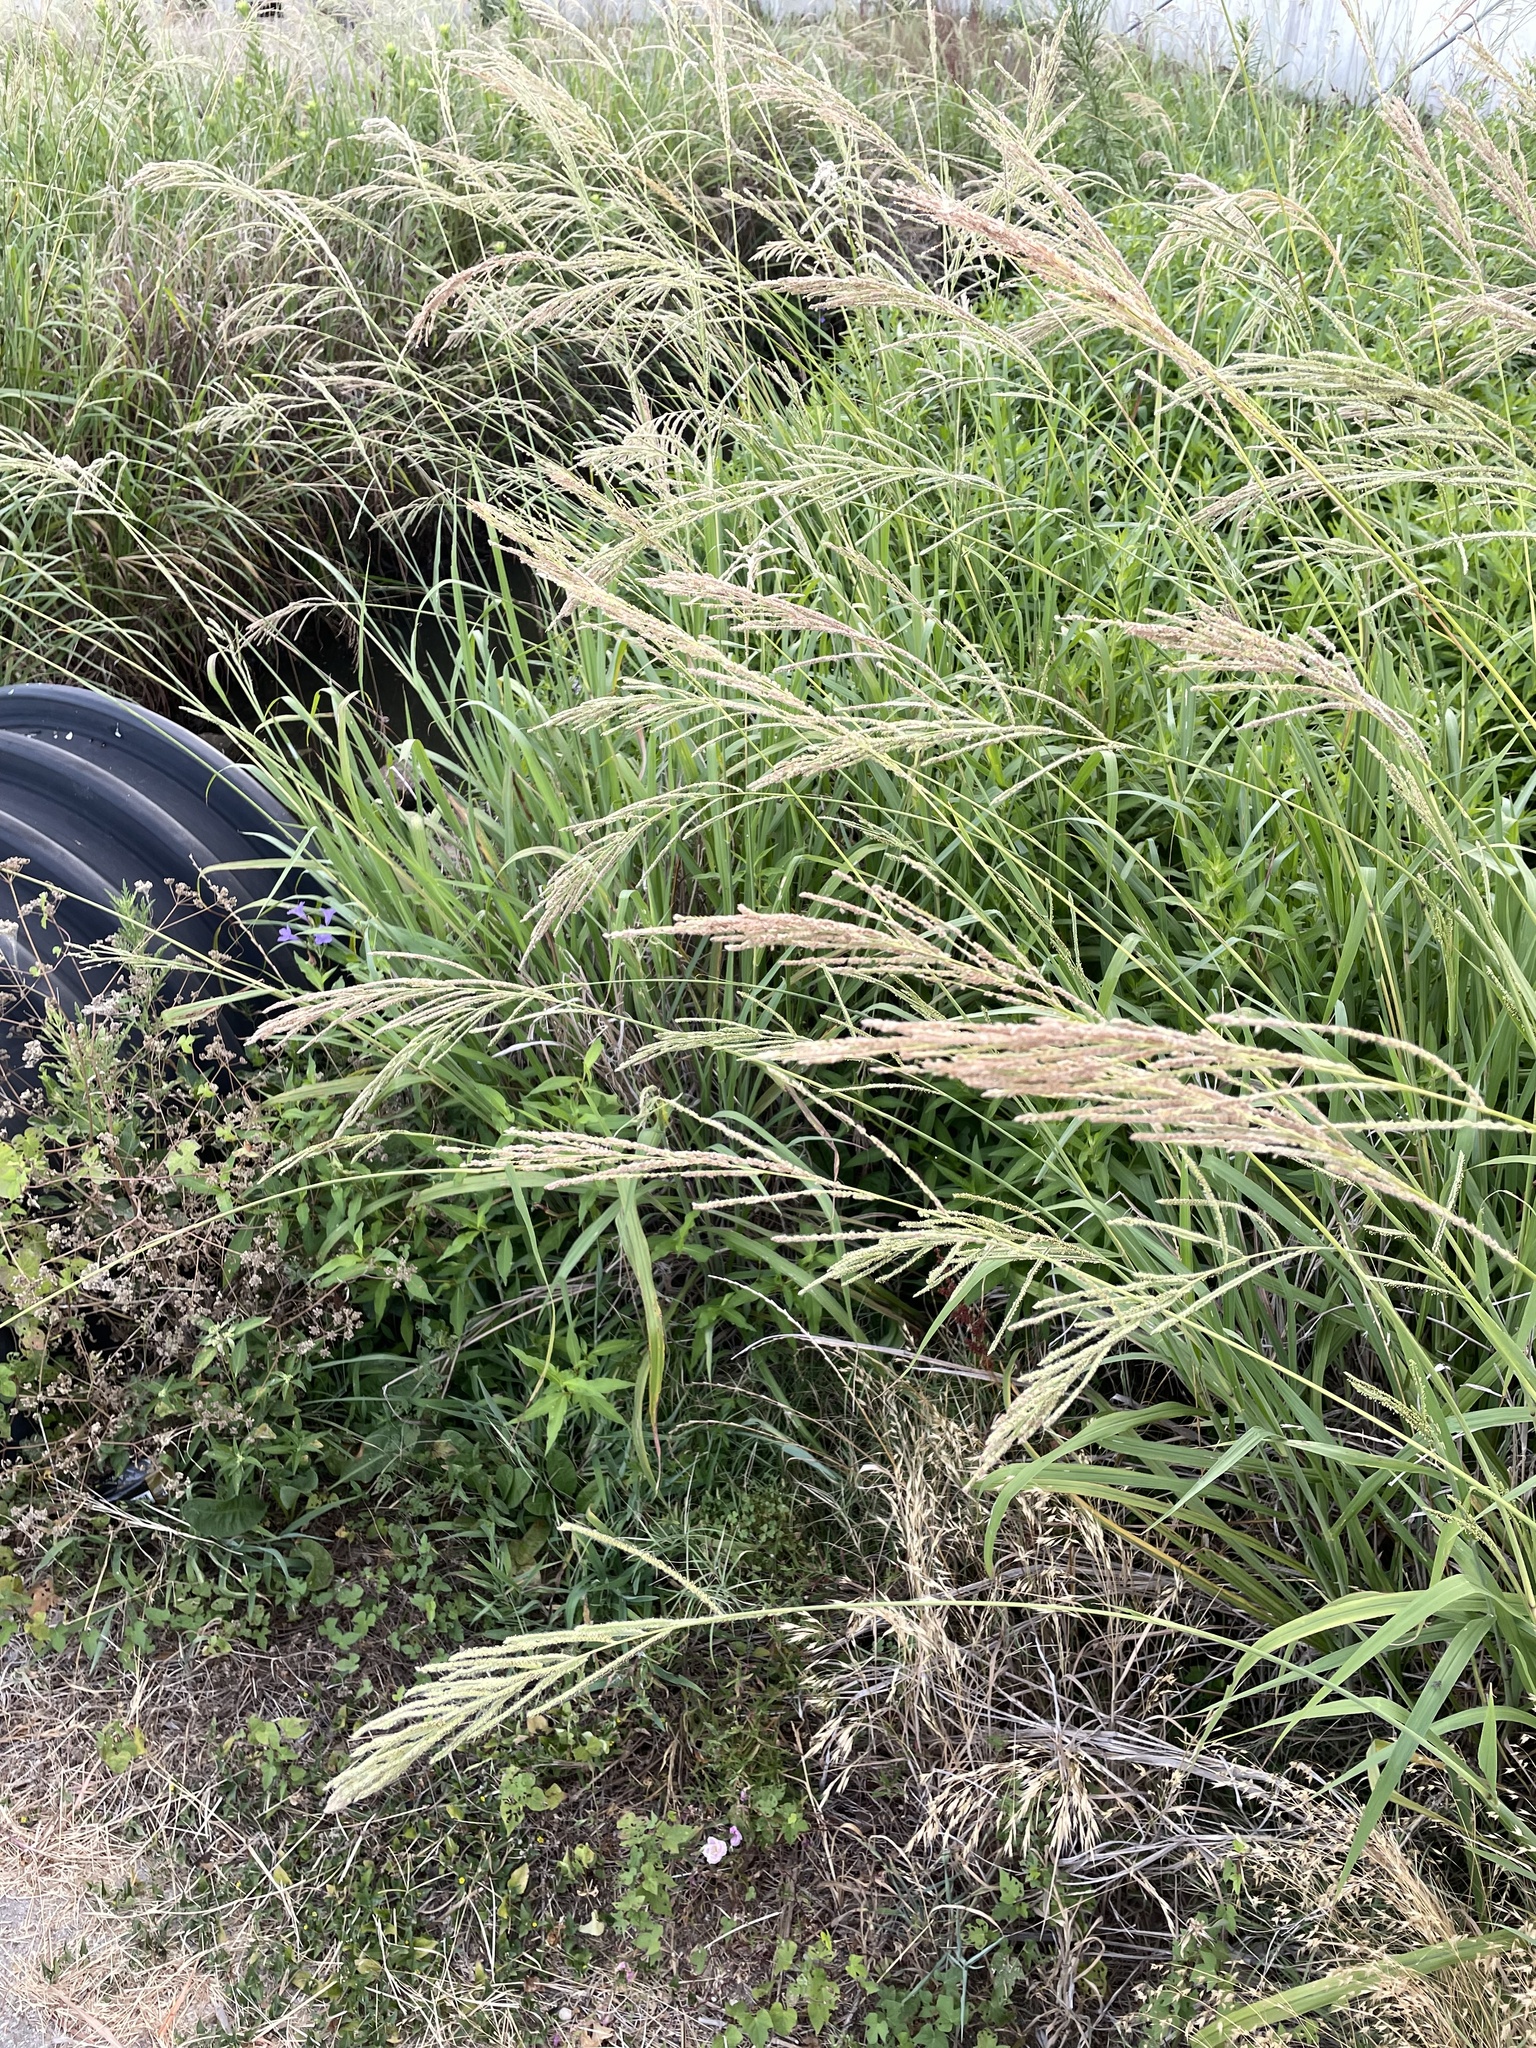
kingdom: Plantae
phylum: Tracheophyta
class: Liliopsida
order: Poales
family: Poaceae
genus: Paspalum
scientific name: Paspalum urvillei
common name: Vasey's grass
